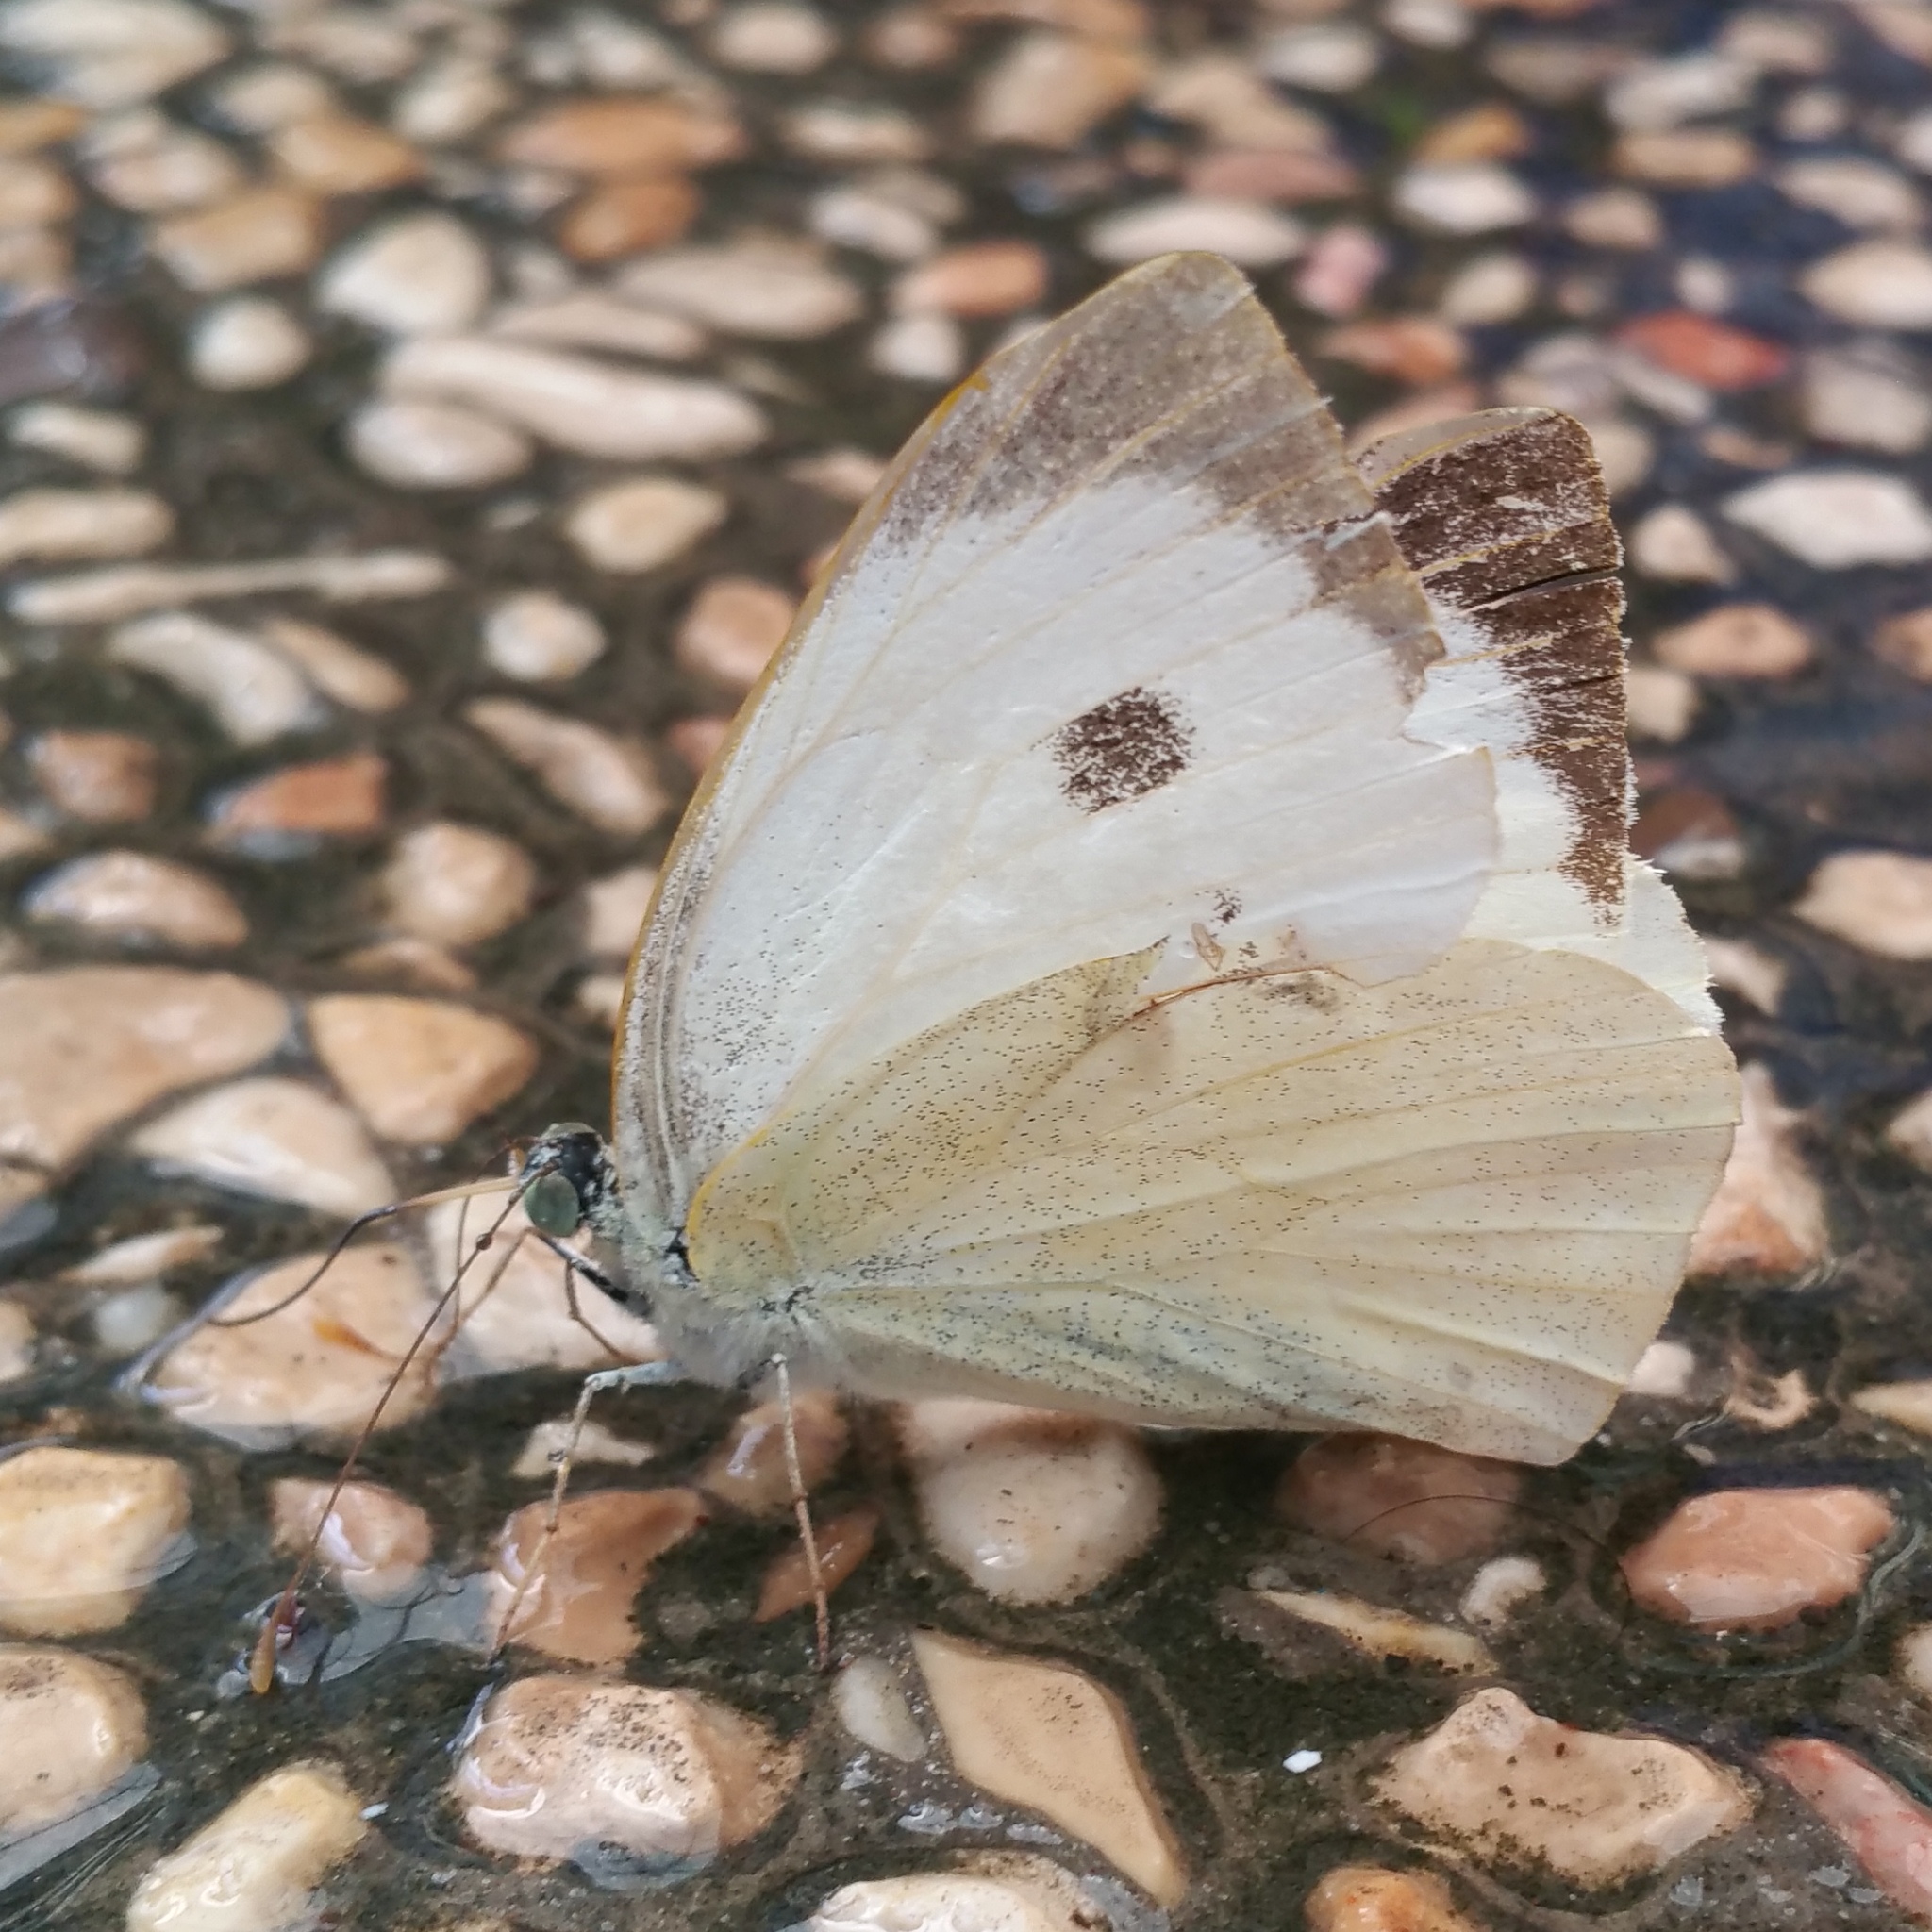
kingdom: Animalia
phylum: Arthropoda
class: Insecta
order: Lepidoptera
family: Pieridae
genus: Pieris
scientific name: Pieris brassicae
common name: Large white
